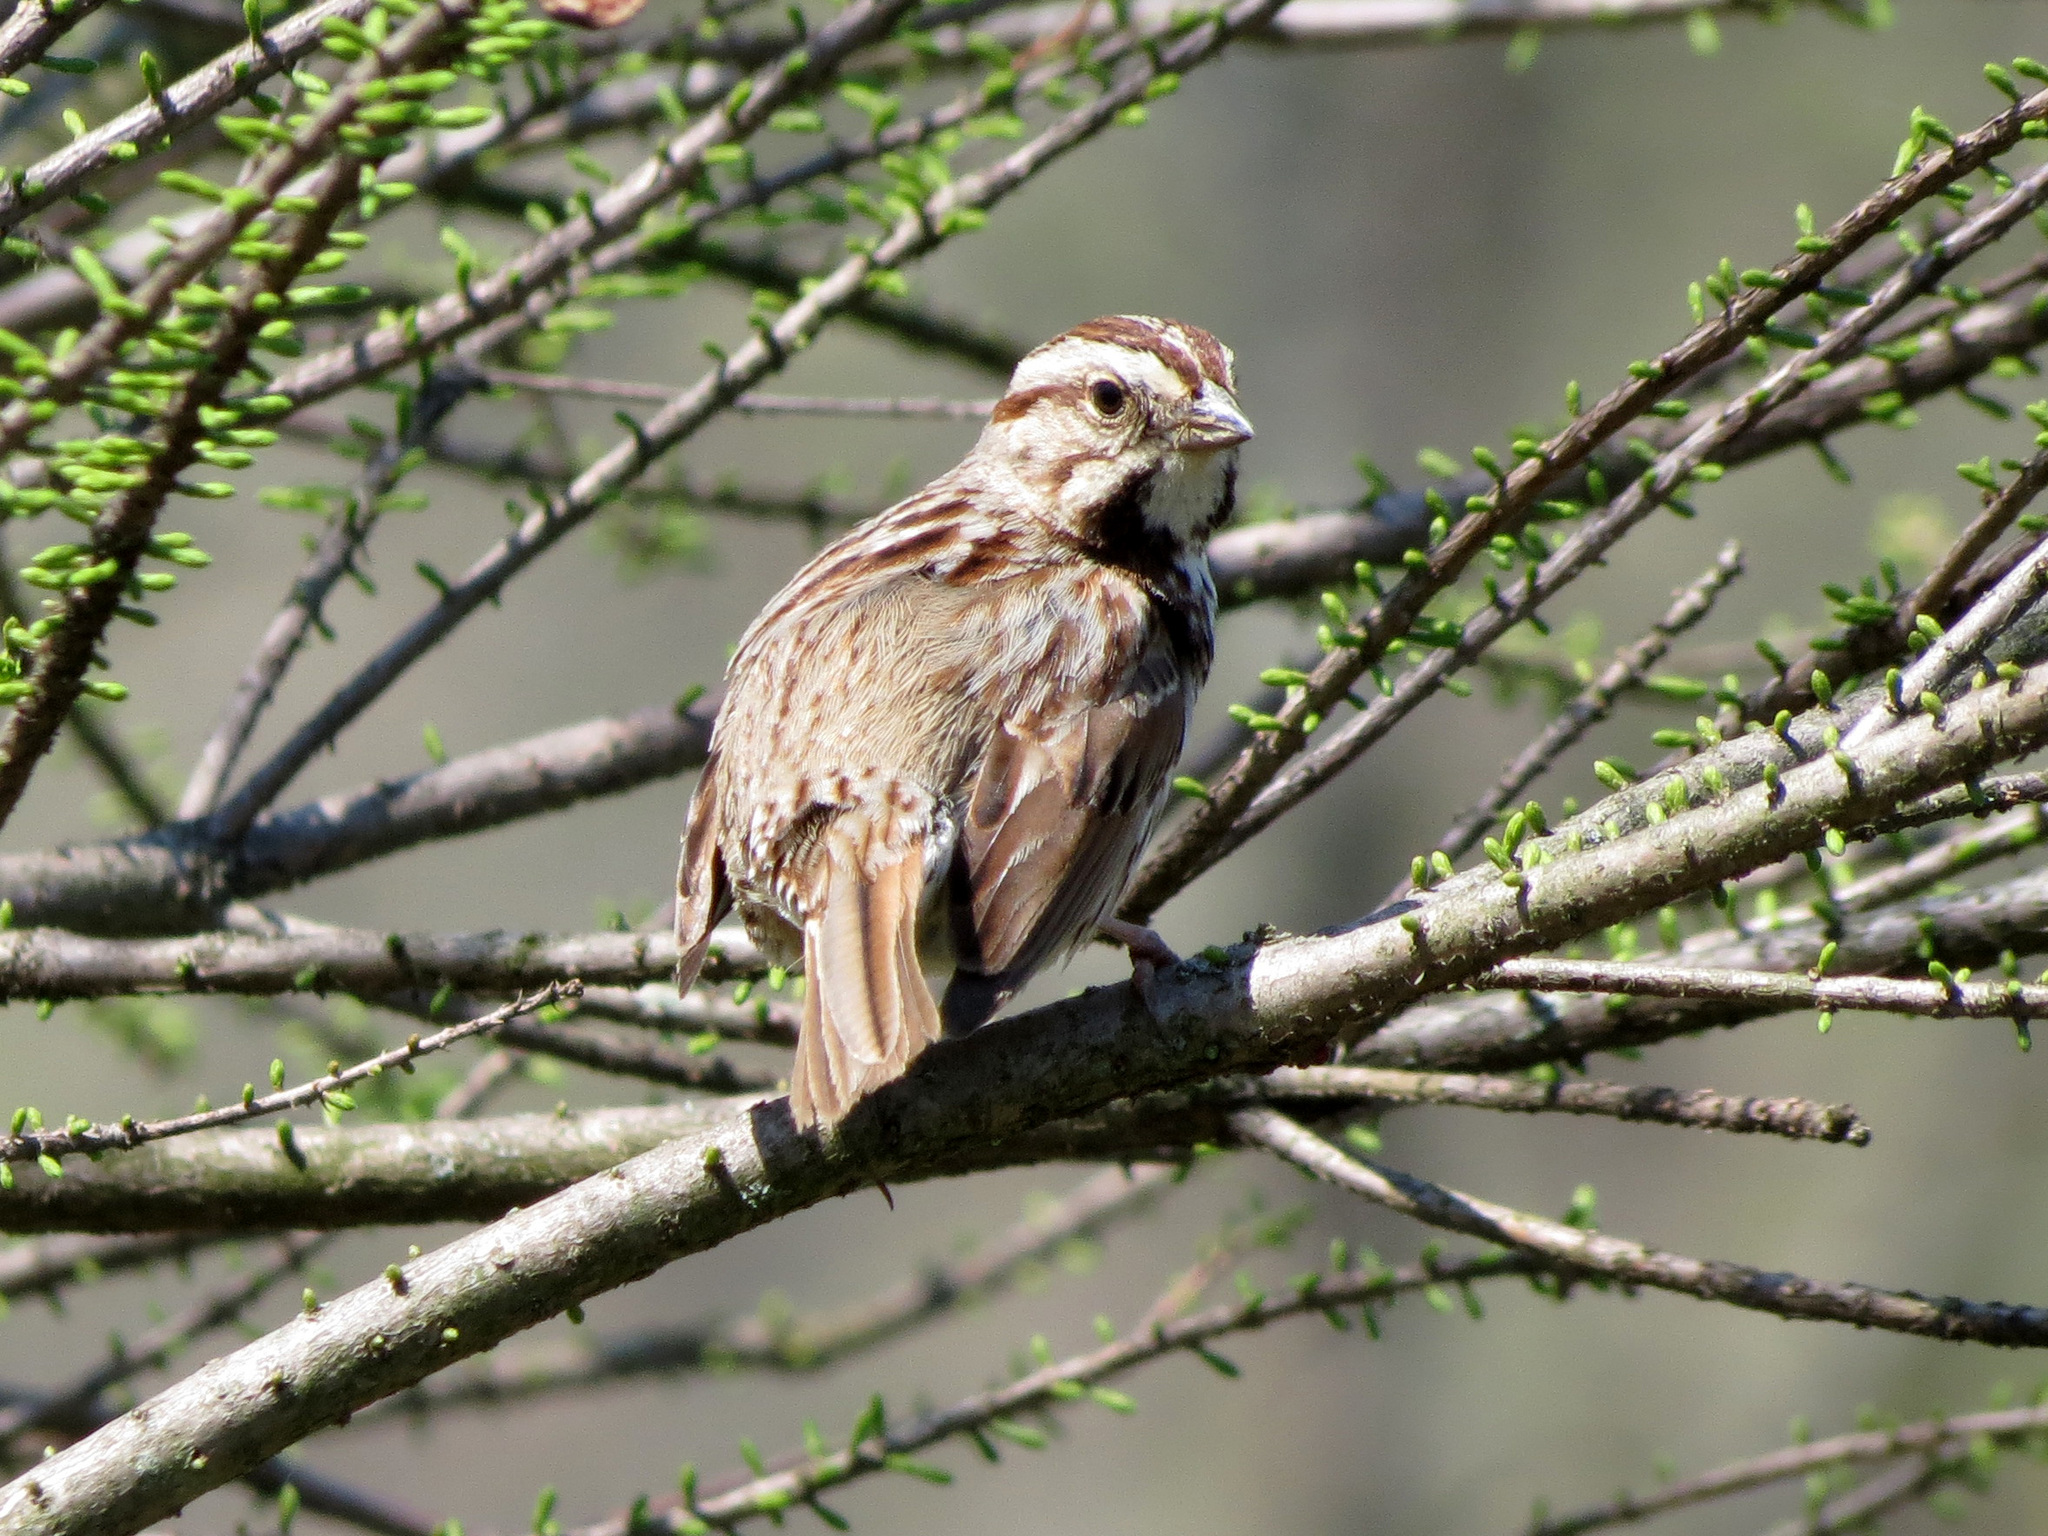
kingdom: Animalia
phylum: Chordata
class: Aves
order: Passeriformes
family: Passerellidae
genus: Melospiza
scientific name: Melospiza melodia
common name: Song sparrow
